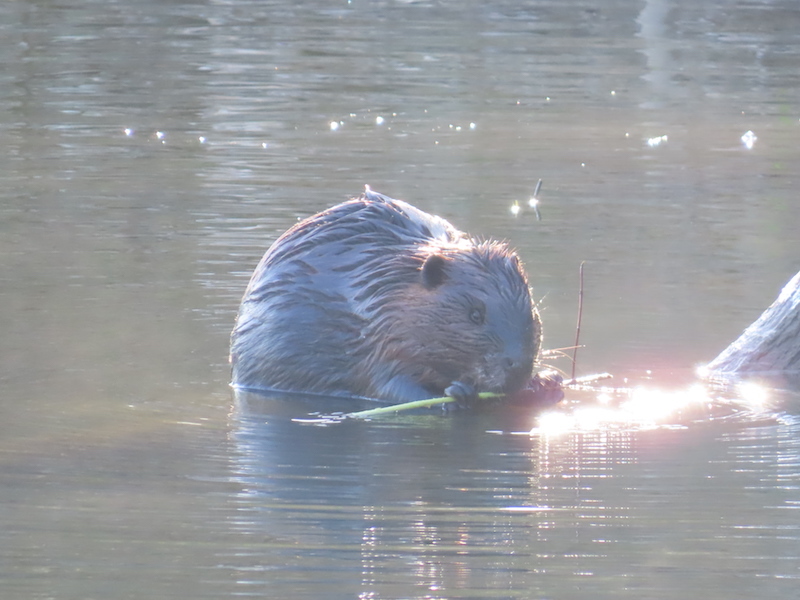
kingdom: Animalia
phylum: Chordata
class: Mammalia
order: Rodentia
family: Castoridae
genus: Castor
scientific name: Castor canadensis
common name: American beaver
